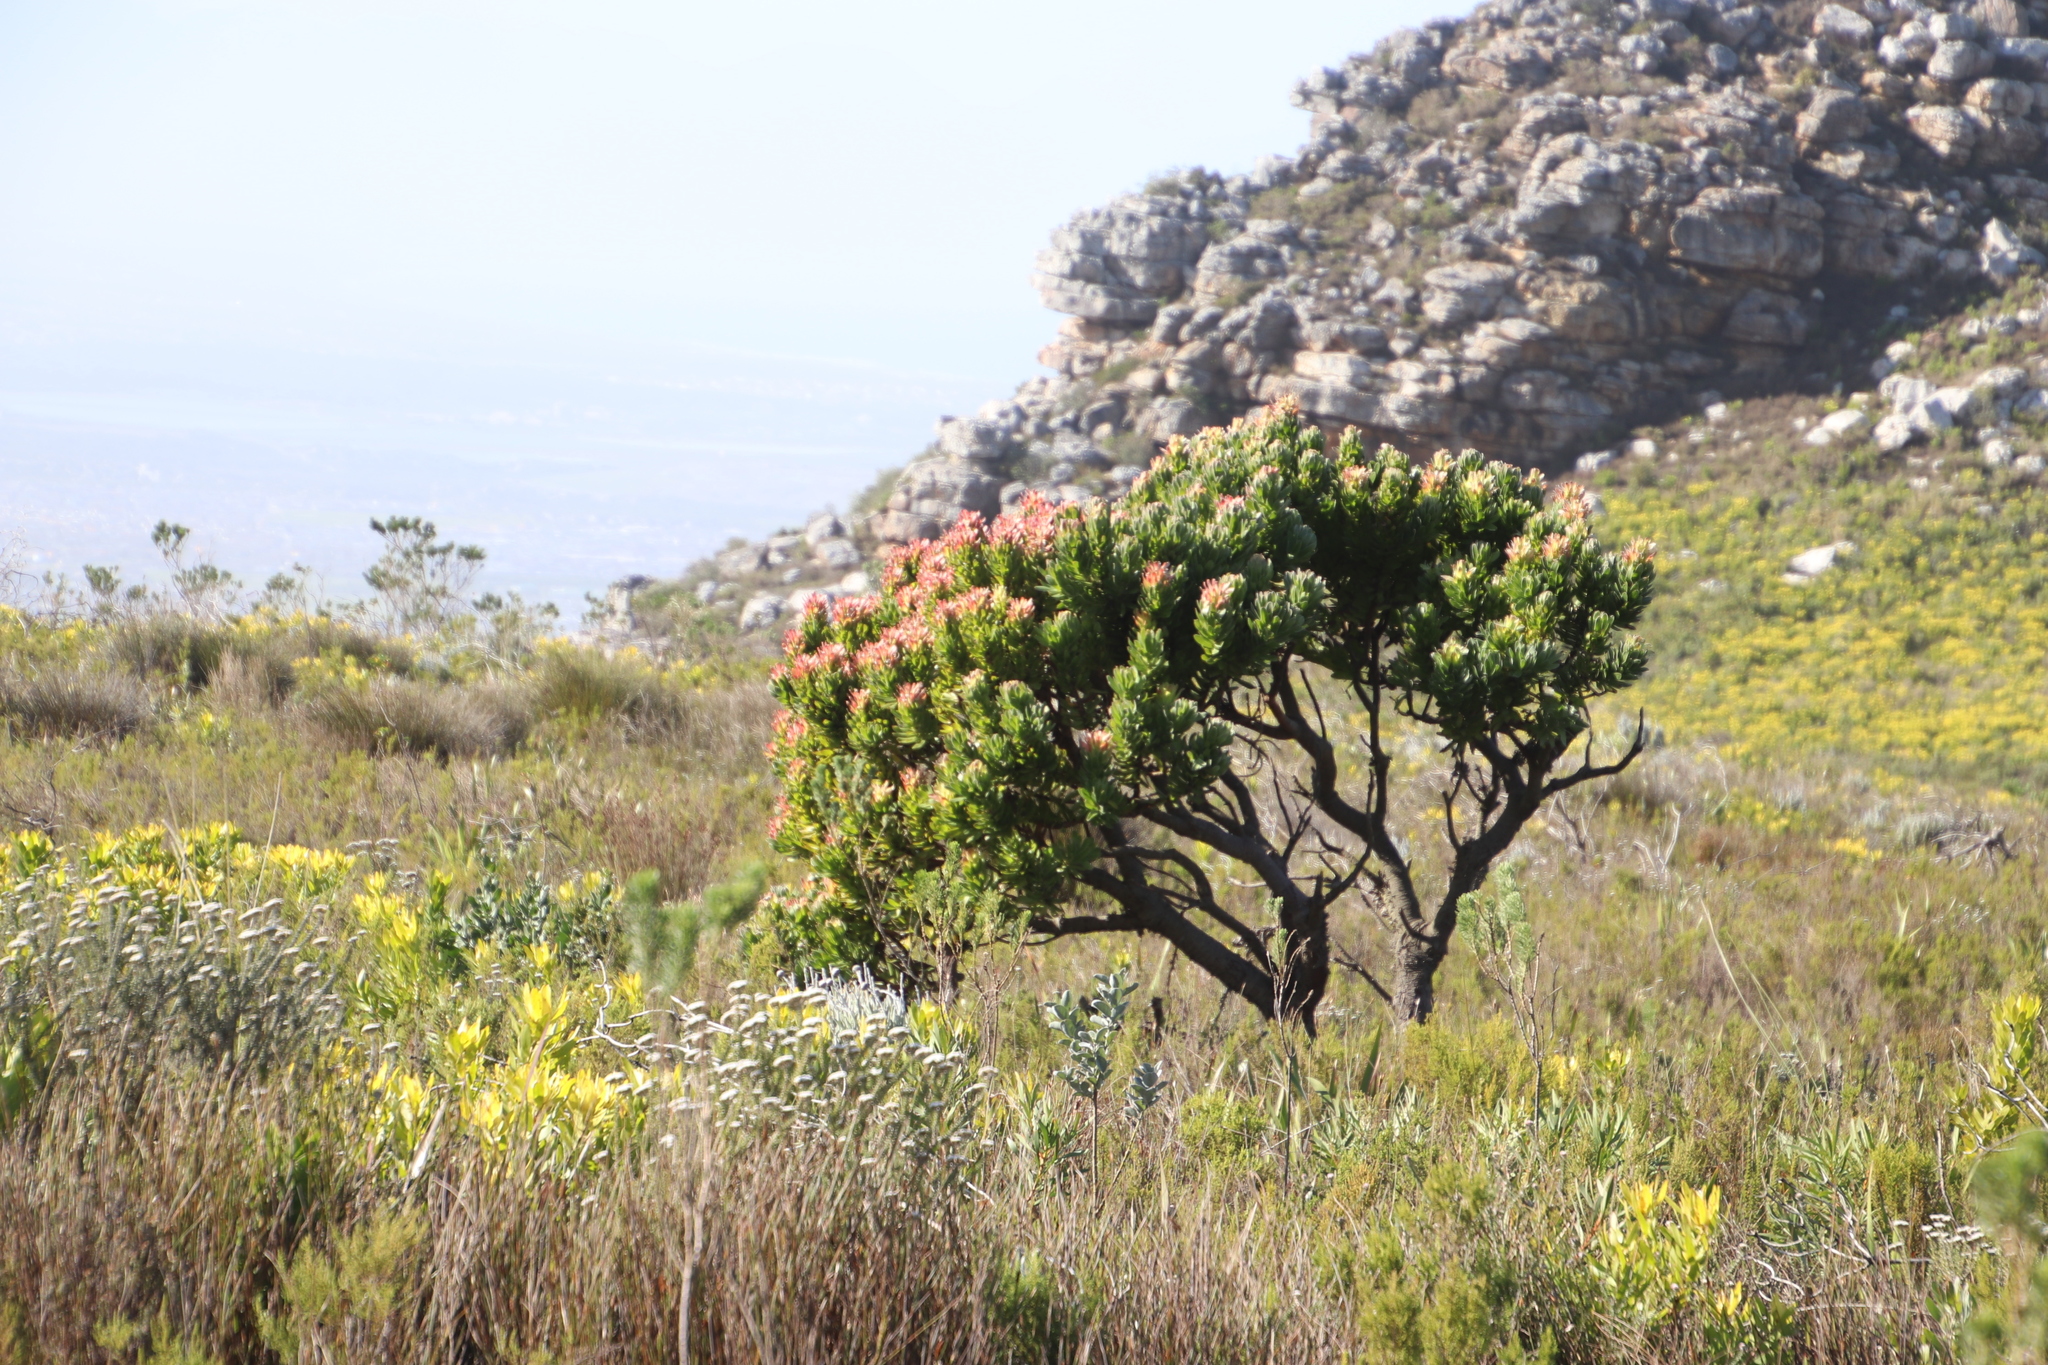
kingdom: Plantae
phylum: Tracheophyta
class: Magnoliopsida
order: Proteales
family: Proteaceae
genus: Mimetes
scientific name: Mimetes fimbriifolius
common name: Fringed bottlebrush
